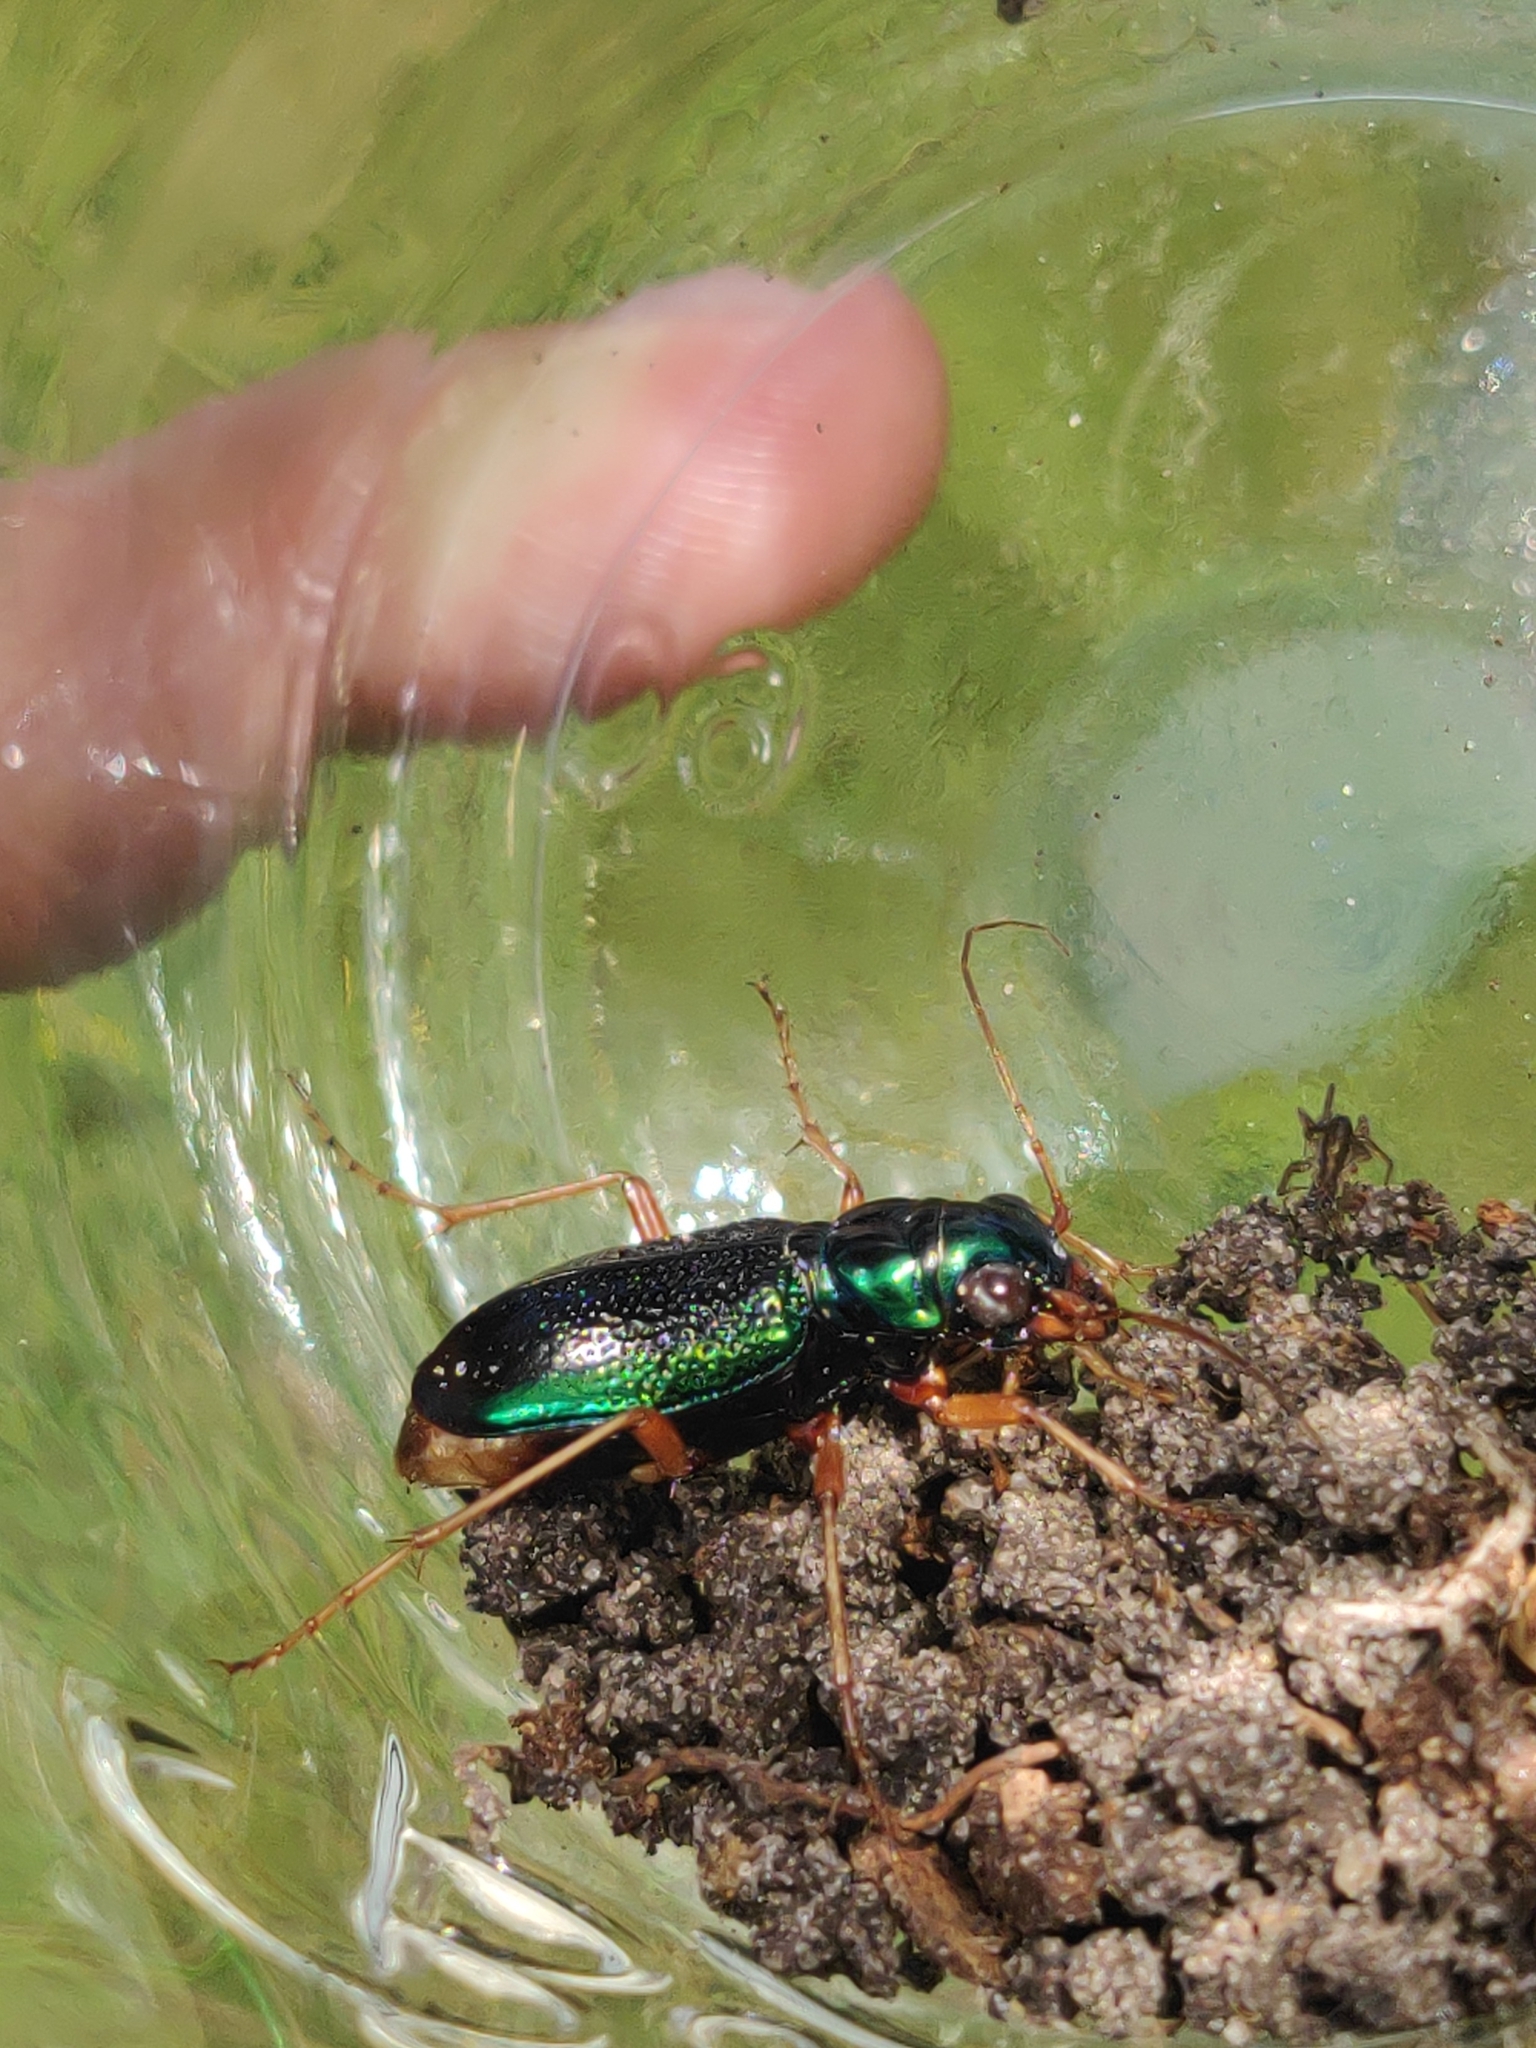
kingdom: Animalia
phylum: Arthropoda
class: Insecta
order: Coleoptera
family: Carabidae
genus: Tetracha
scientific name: Tetracha virginica
